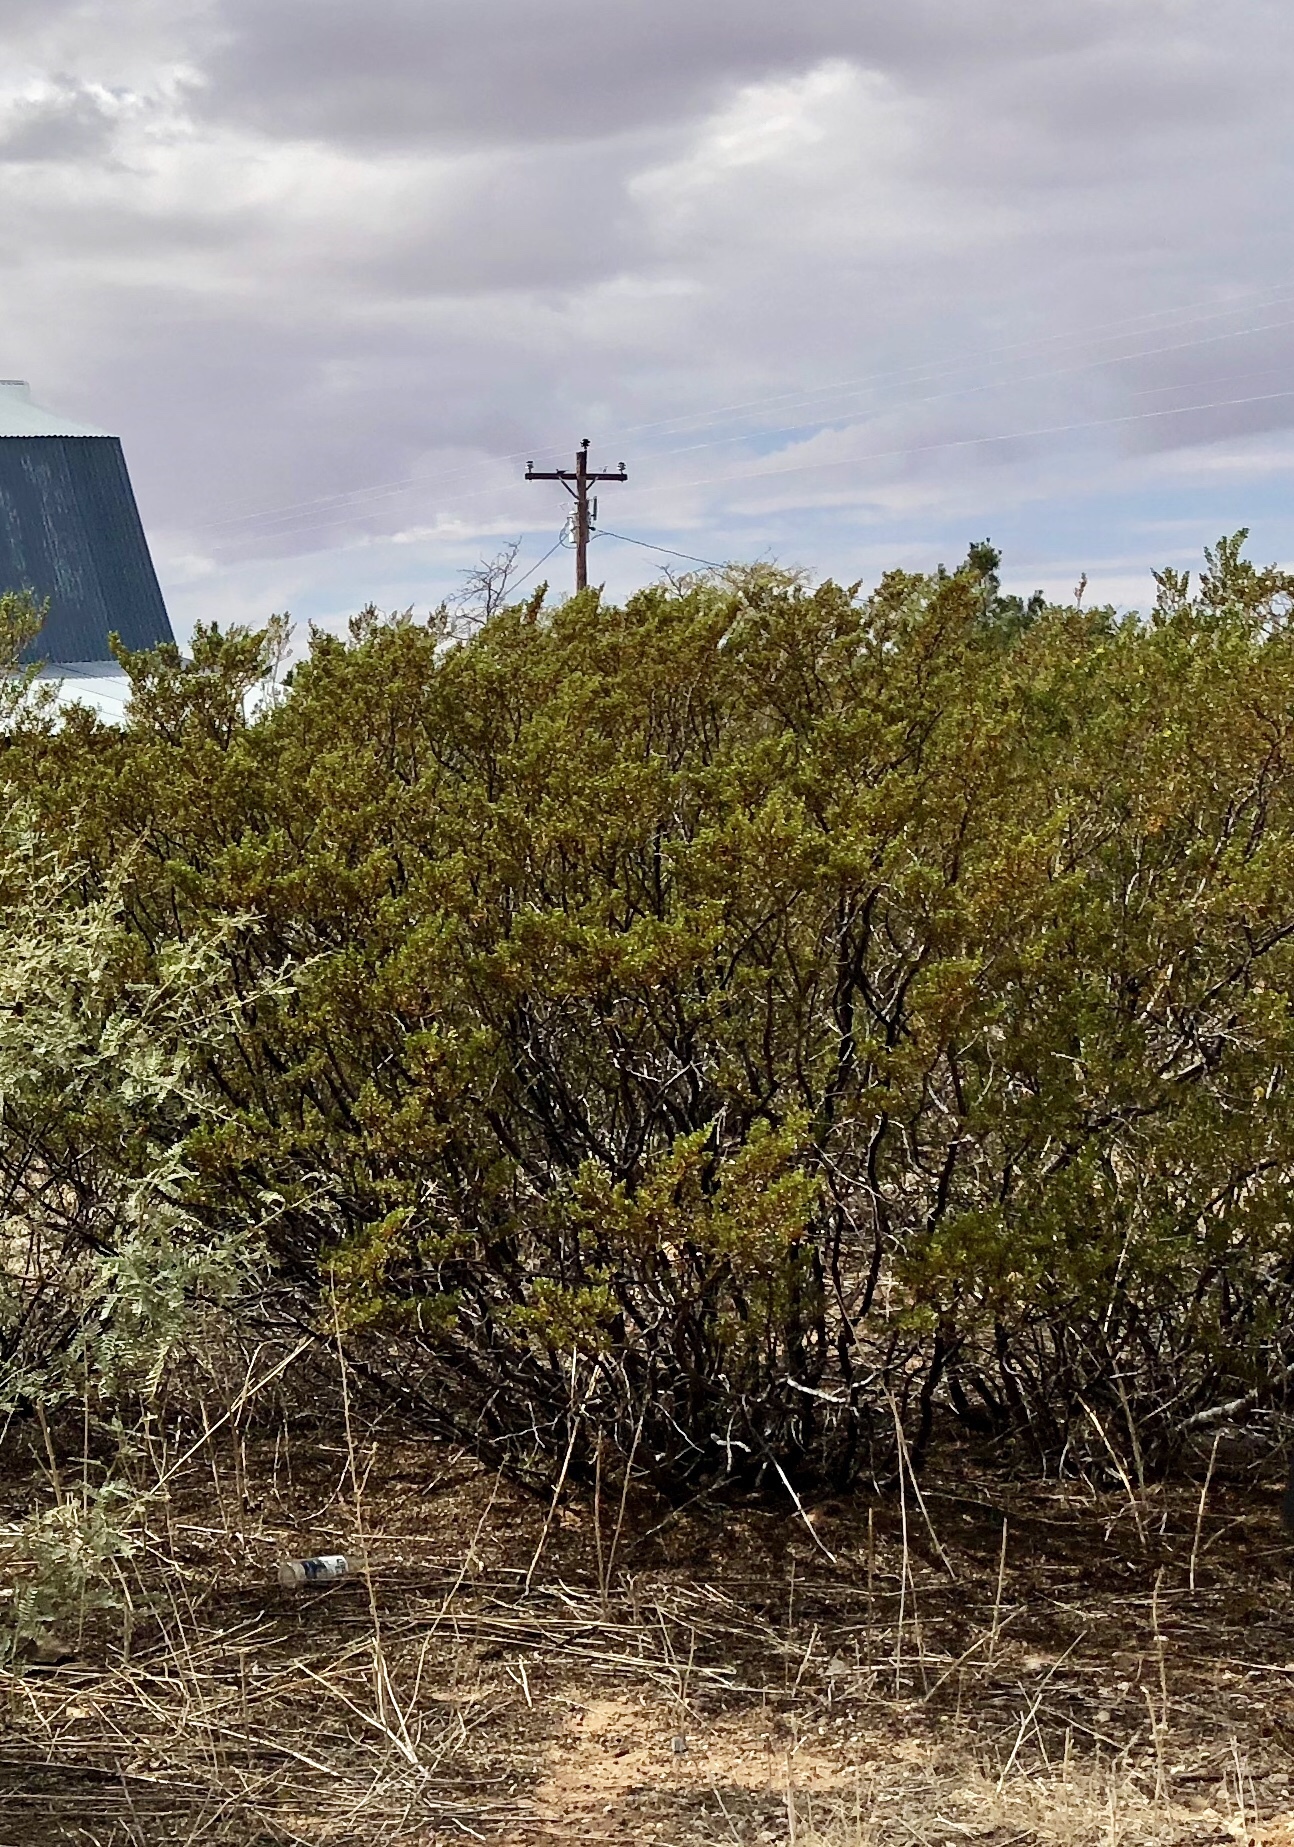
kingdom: Plantae
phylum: Tracheophyta
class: Magnoliopsida
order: Zygophyllales
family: Zygophyllaceae
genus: Larrea
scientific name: Larrea tridentata
